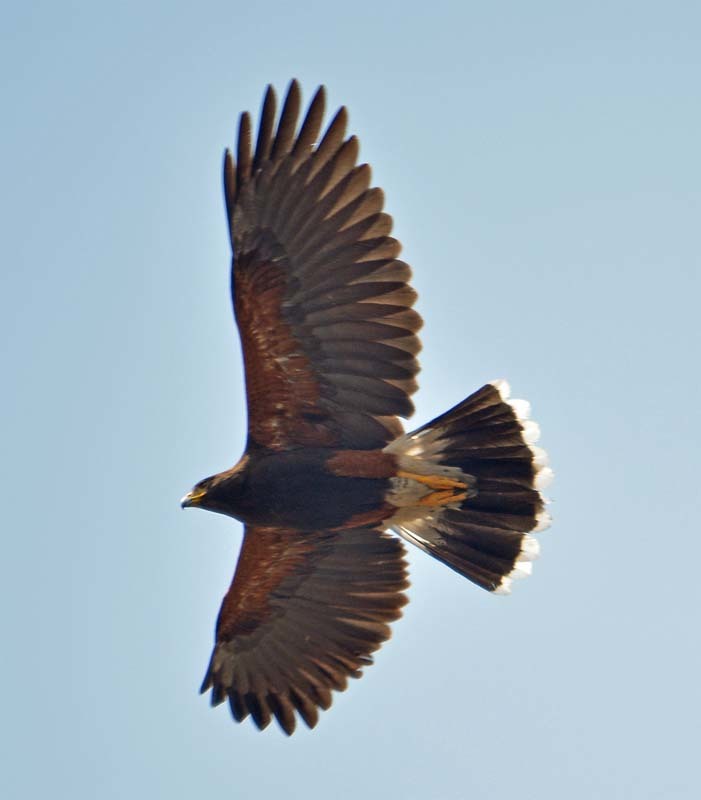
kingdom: Animalia
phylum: Chordata
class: Aves
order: Accipitriformes
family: Accipitridae
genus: Parabuteo
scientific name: Parabuteo unicinctus
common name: Harris's hawk
